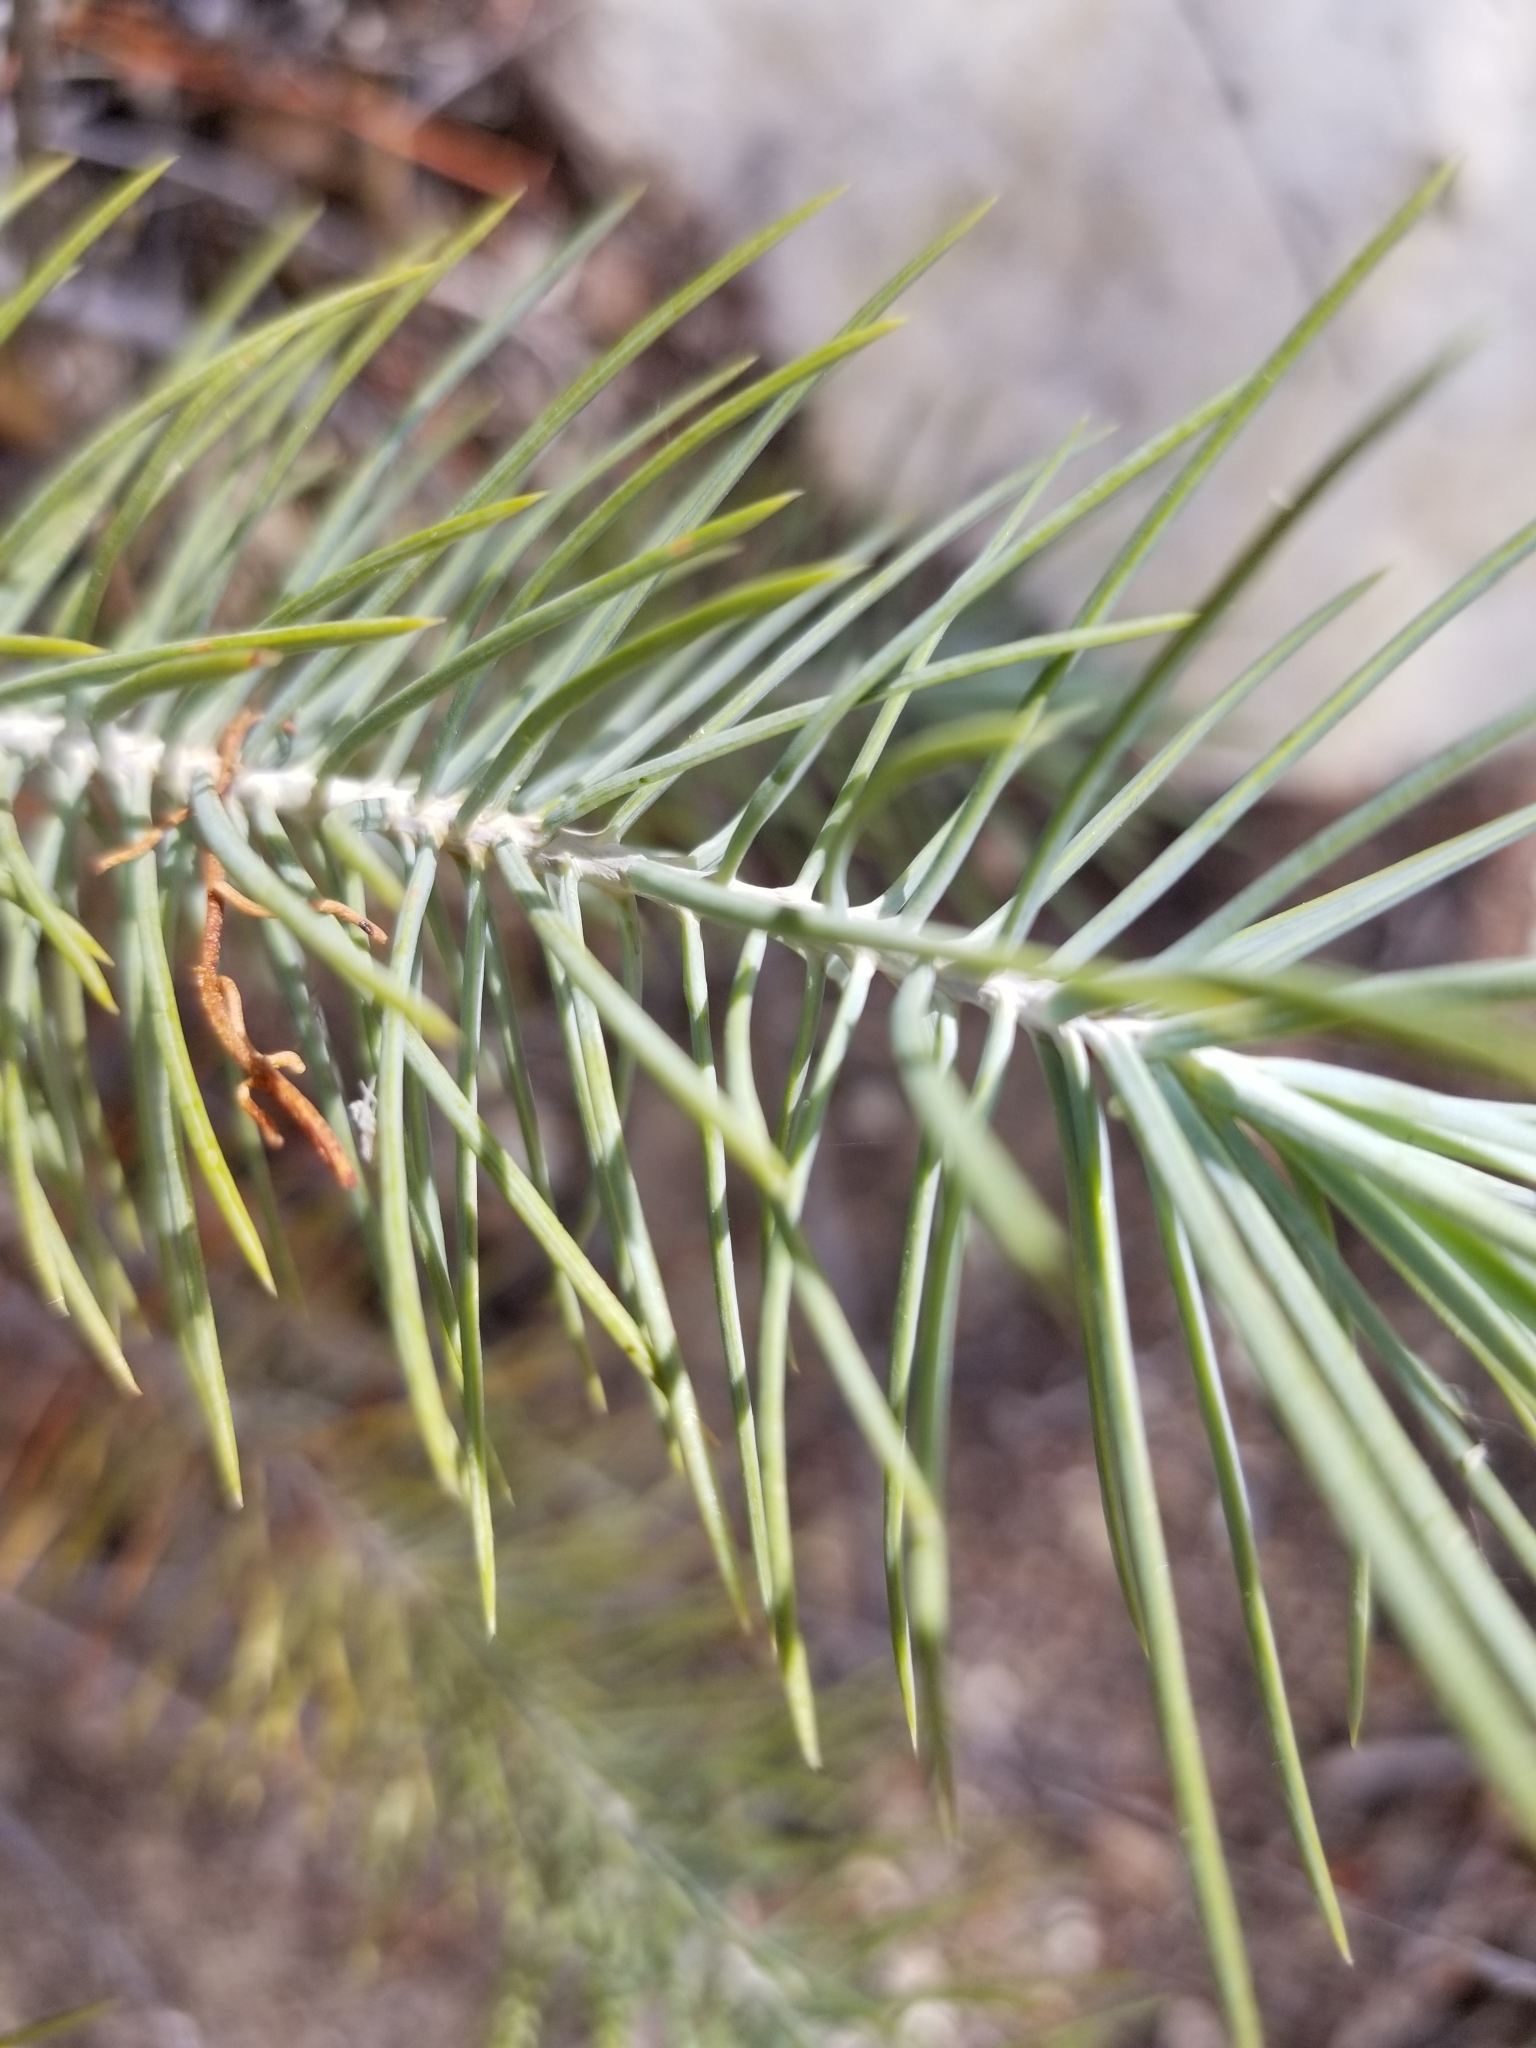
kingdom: Plantae
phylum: Tracheophyta
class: Pinopsida
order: Pinales
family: Pinaceae
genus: Pinus
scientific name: Pinus monophylla
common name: One-leaved nut pine
